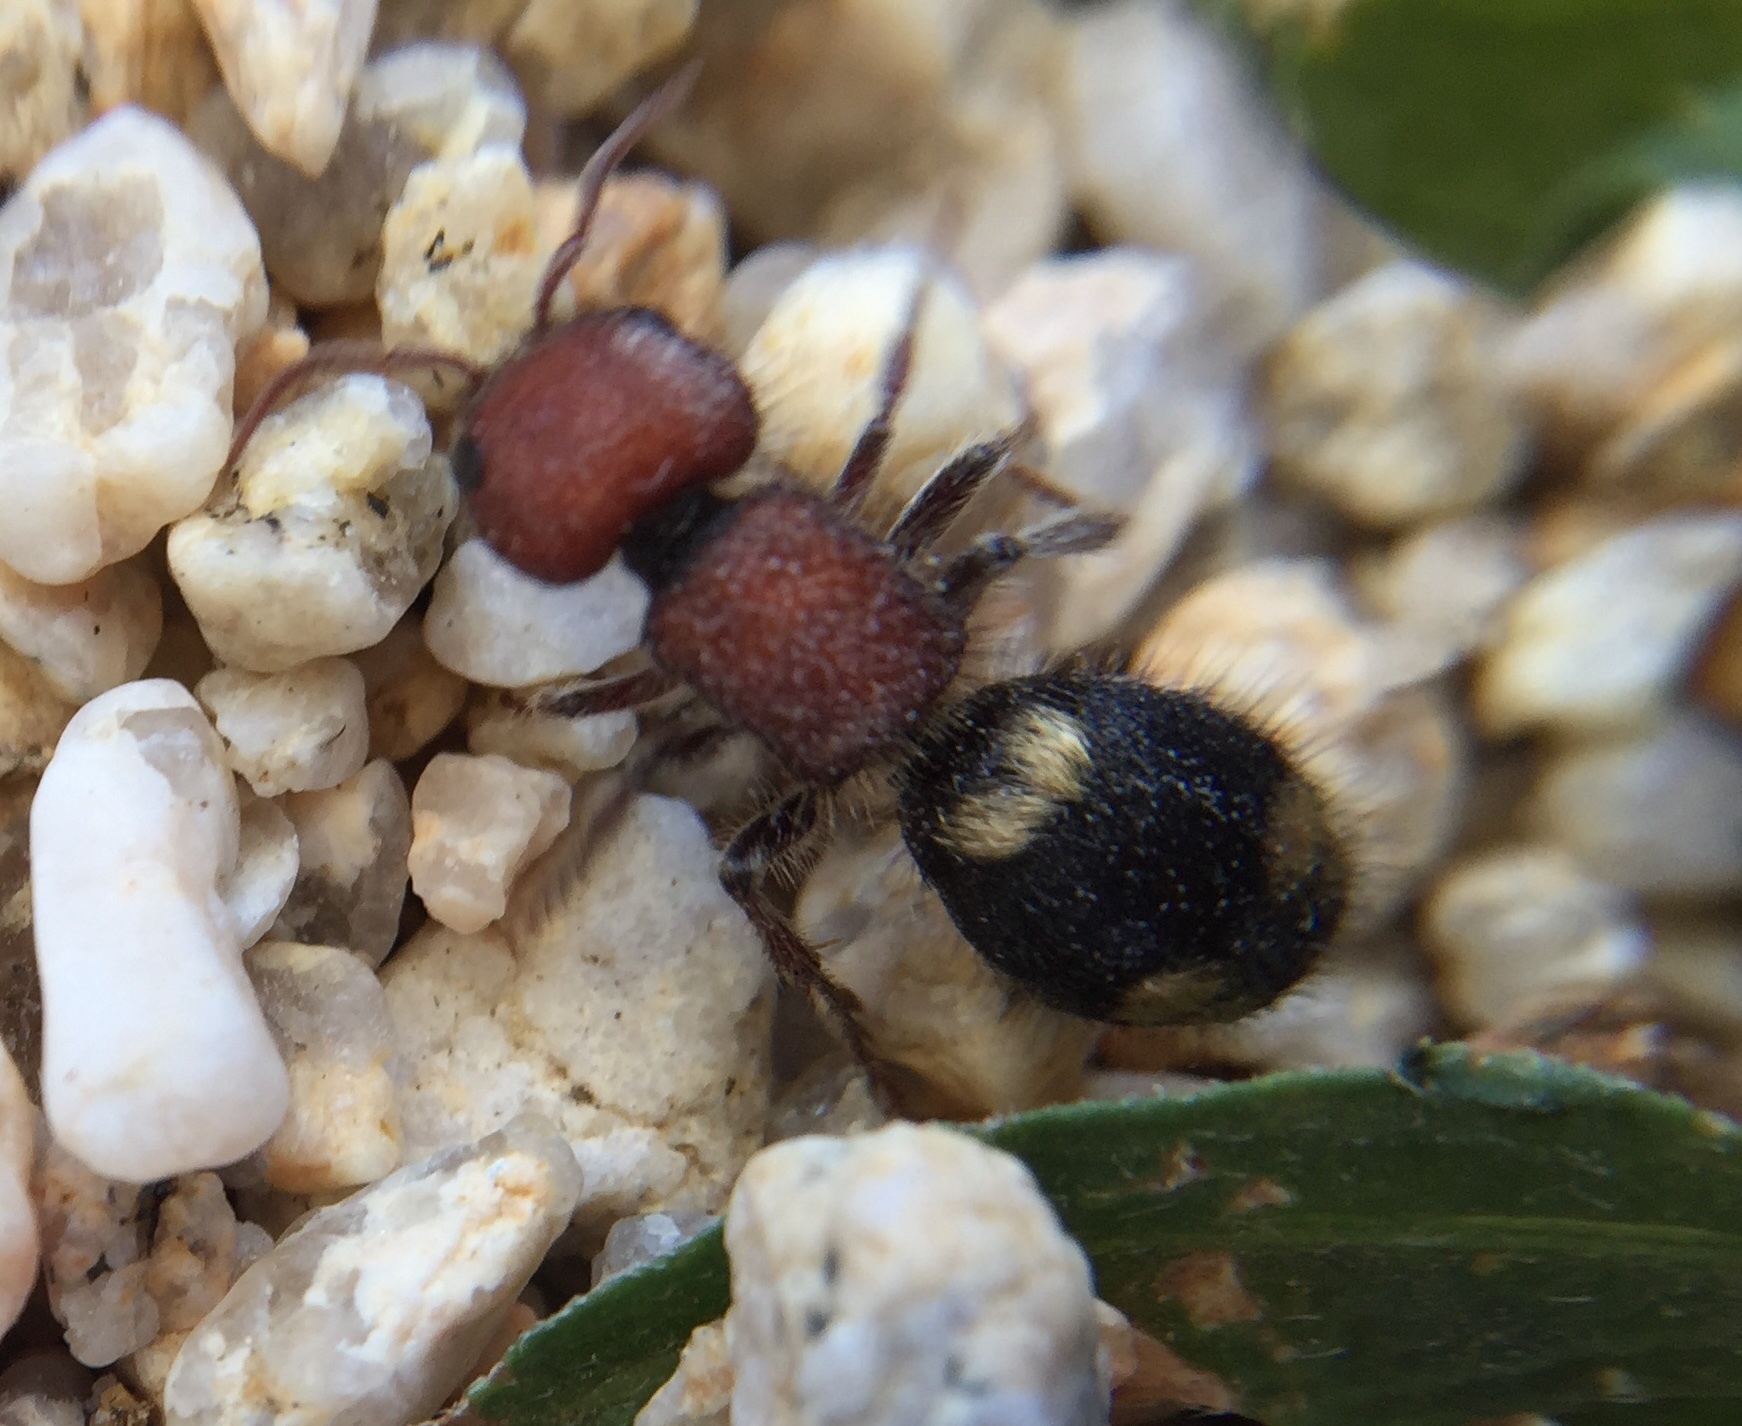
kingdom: Animalia
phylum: Arthropoda
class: Insecta
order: Hymenoptera
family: Mutillidae
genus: Mutilla
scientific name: Mutilla quinquemaculata
